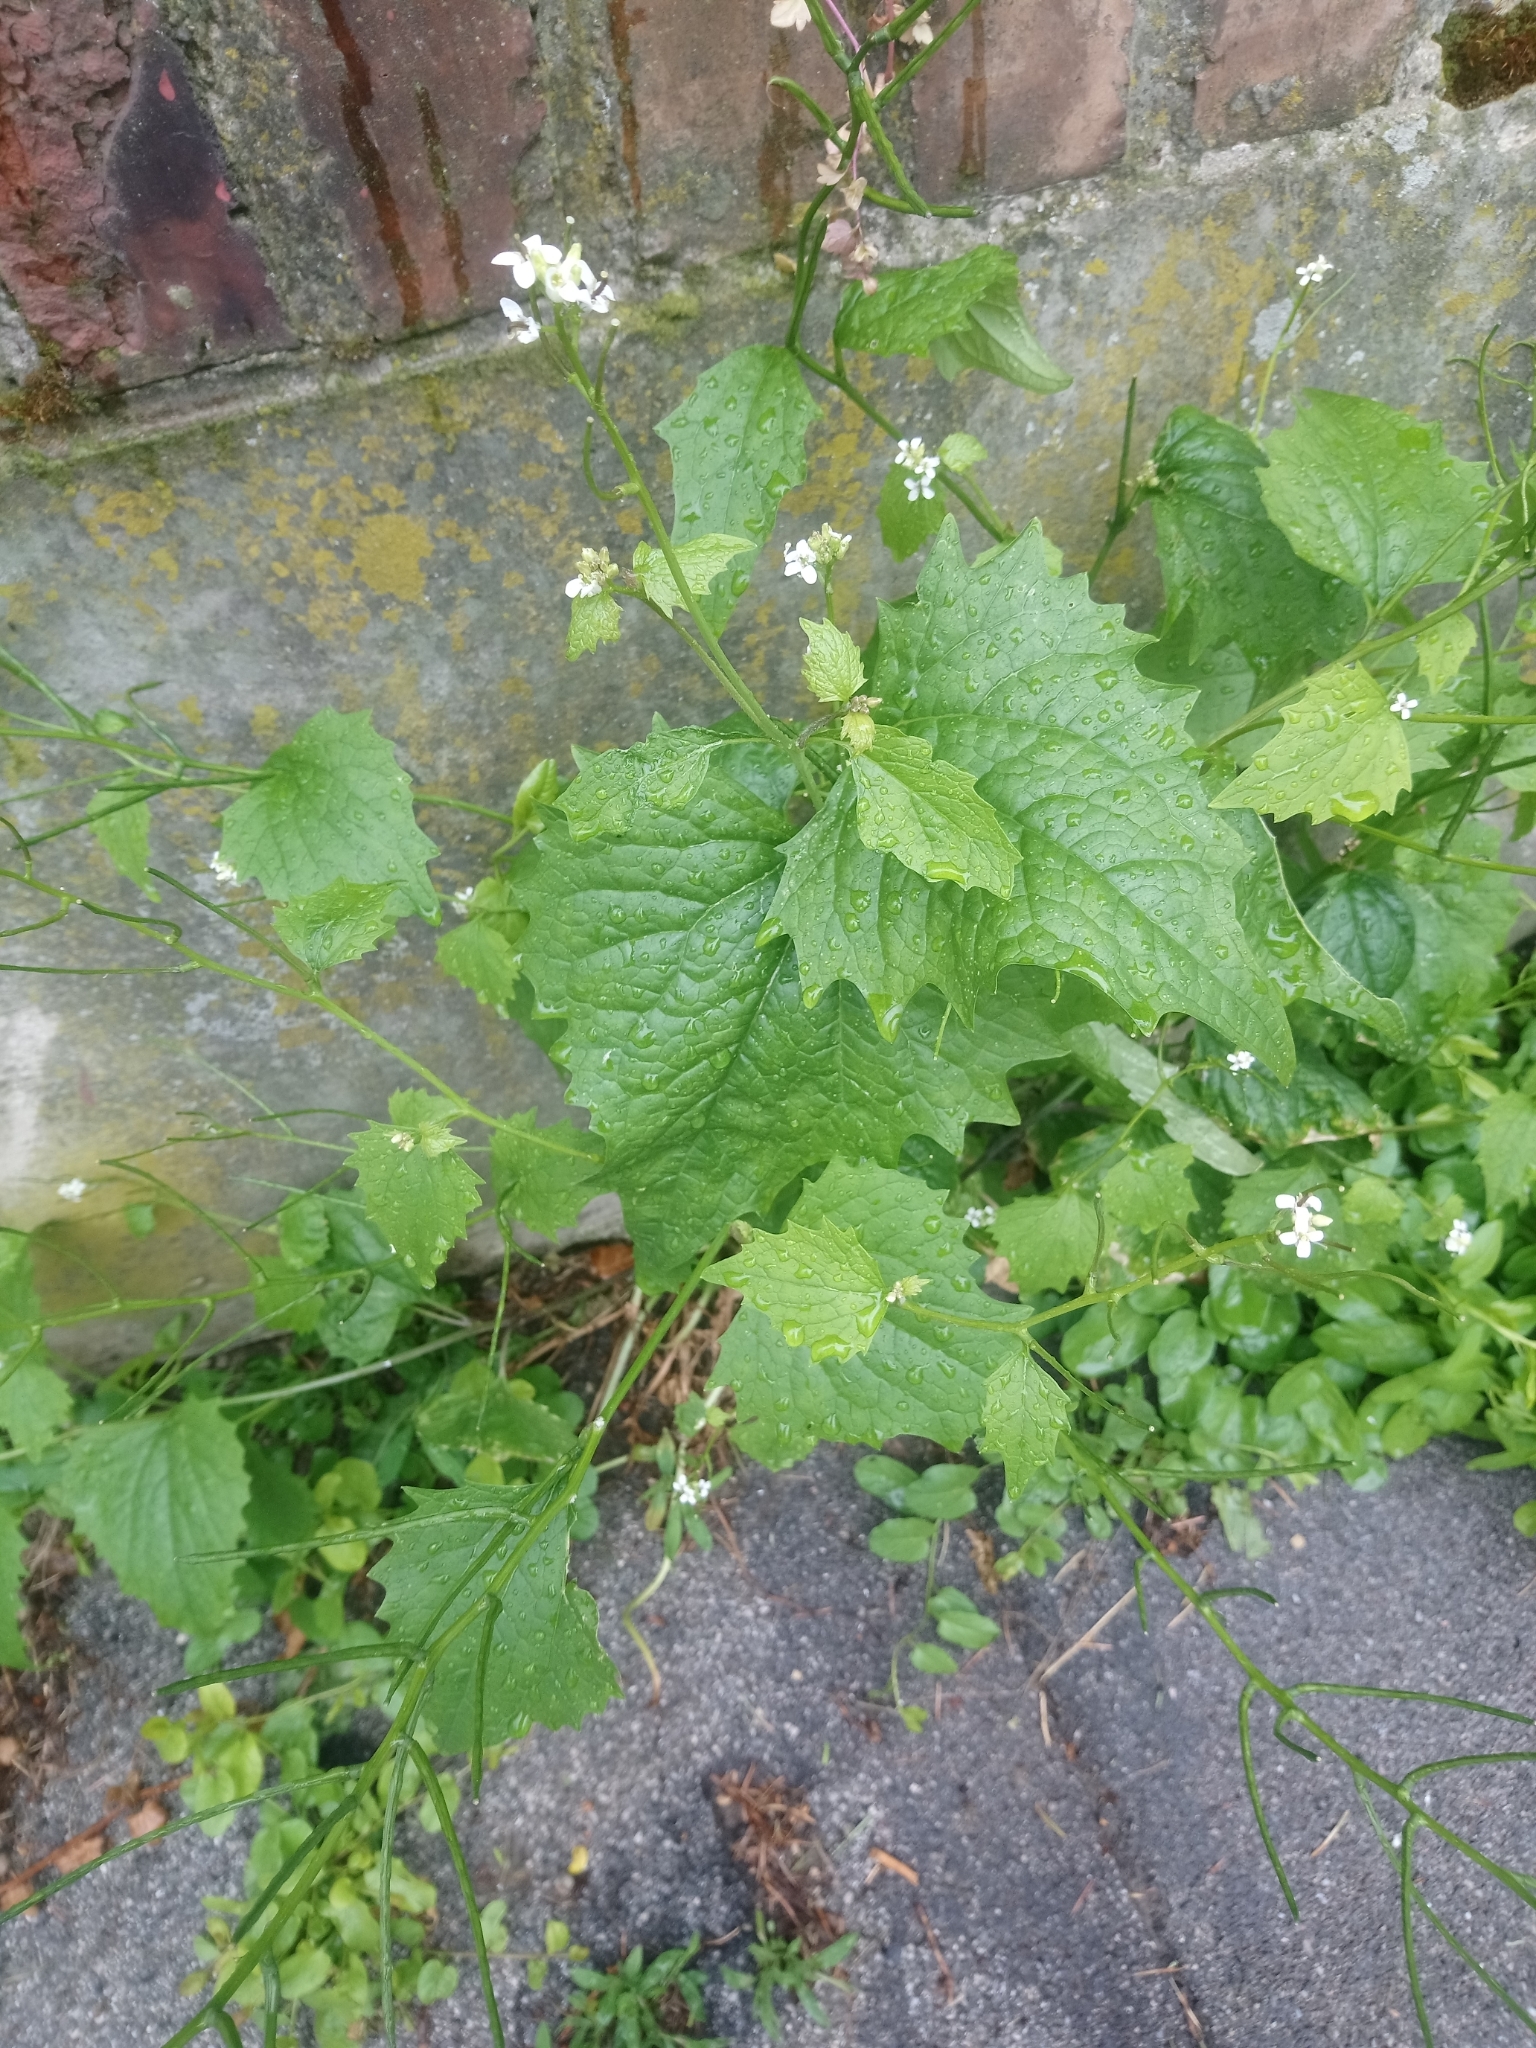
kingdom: Plantae
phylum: Tracheophyta
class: Magnoliopsida
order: Brassicales
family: Brassicaceae
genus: Alliaria
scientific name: Alliaria petiolata
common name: Garlic mustard
